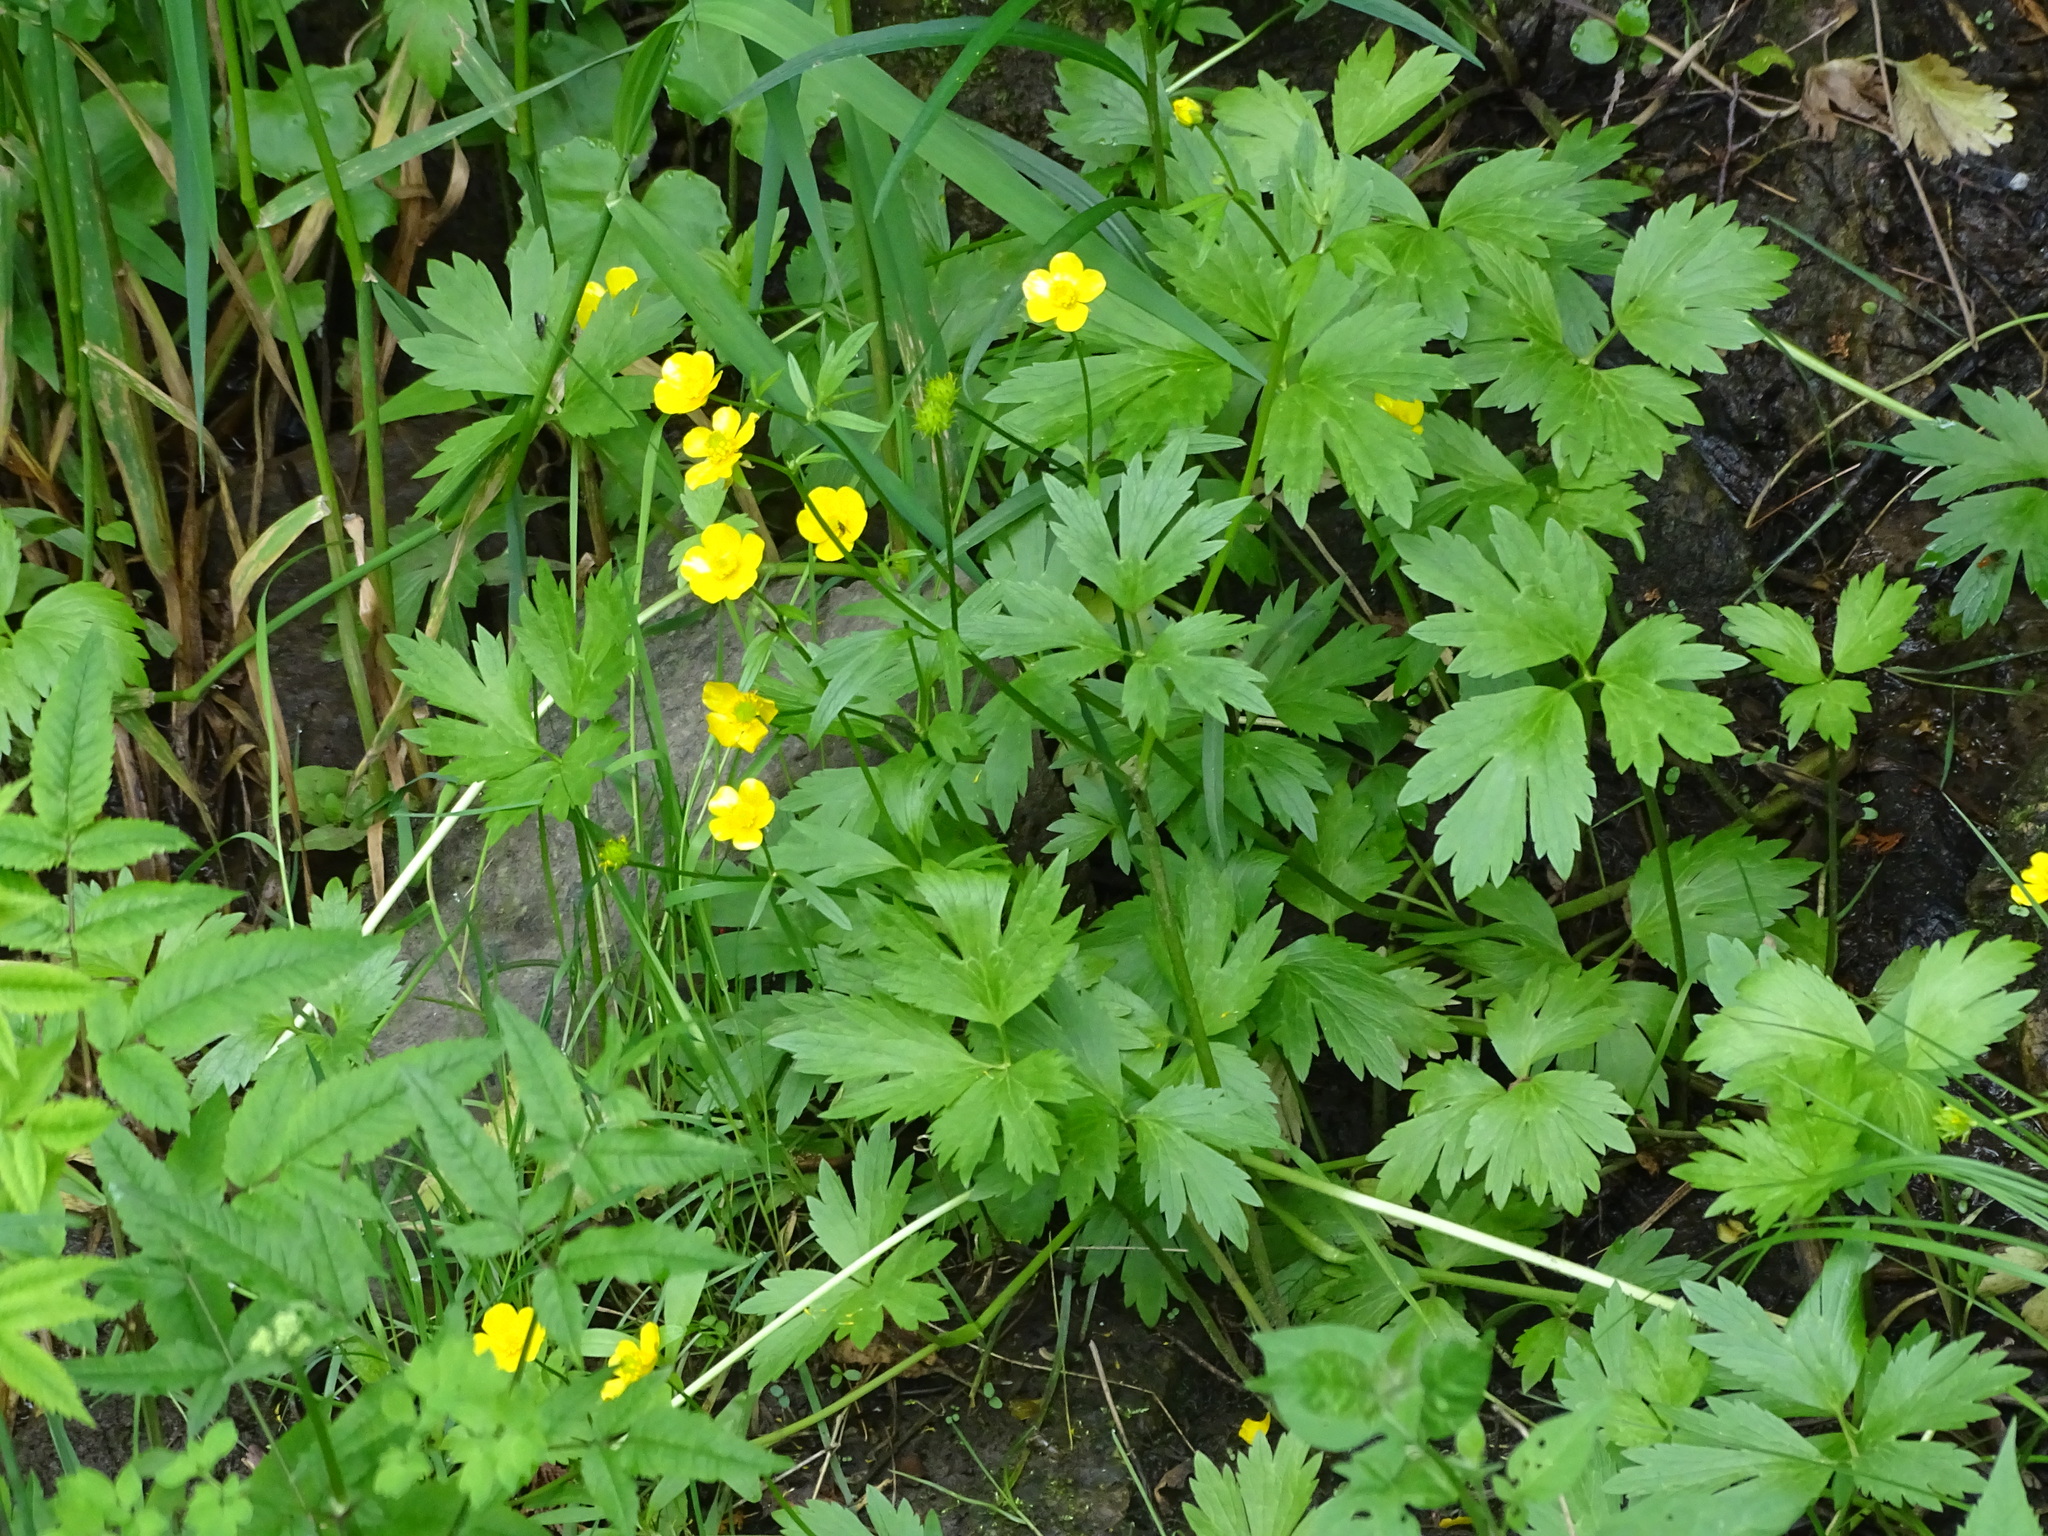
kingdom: Plantae
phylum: Tracheophyta
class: Magnoliopsida
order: Ranunculales
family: Ranunculaceae
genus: Ranunculus
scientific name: Ranunculus hispidus
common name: Bristly buttercup
